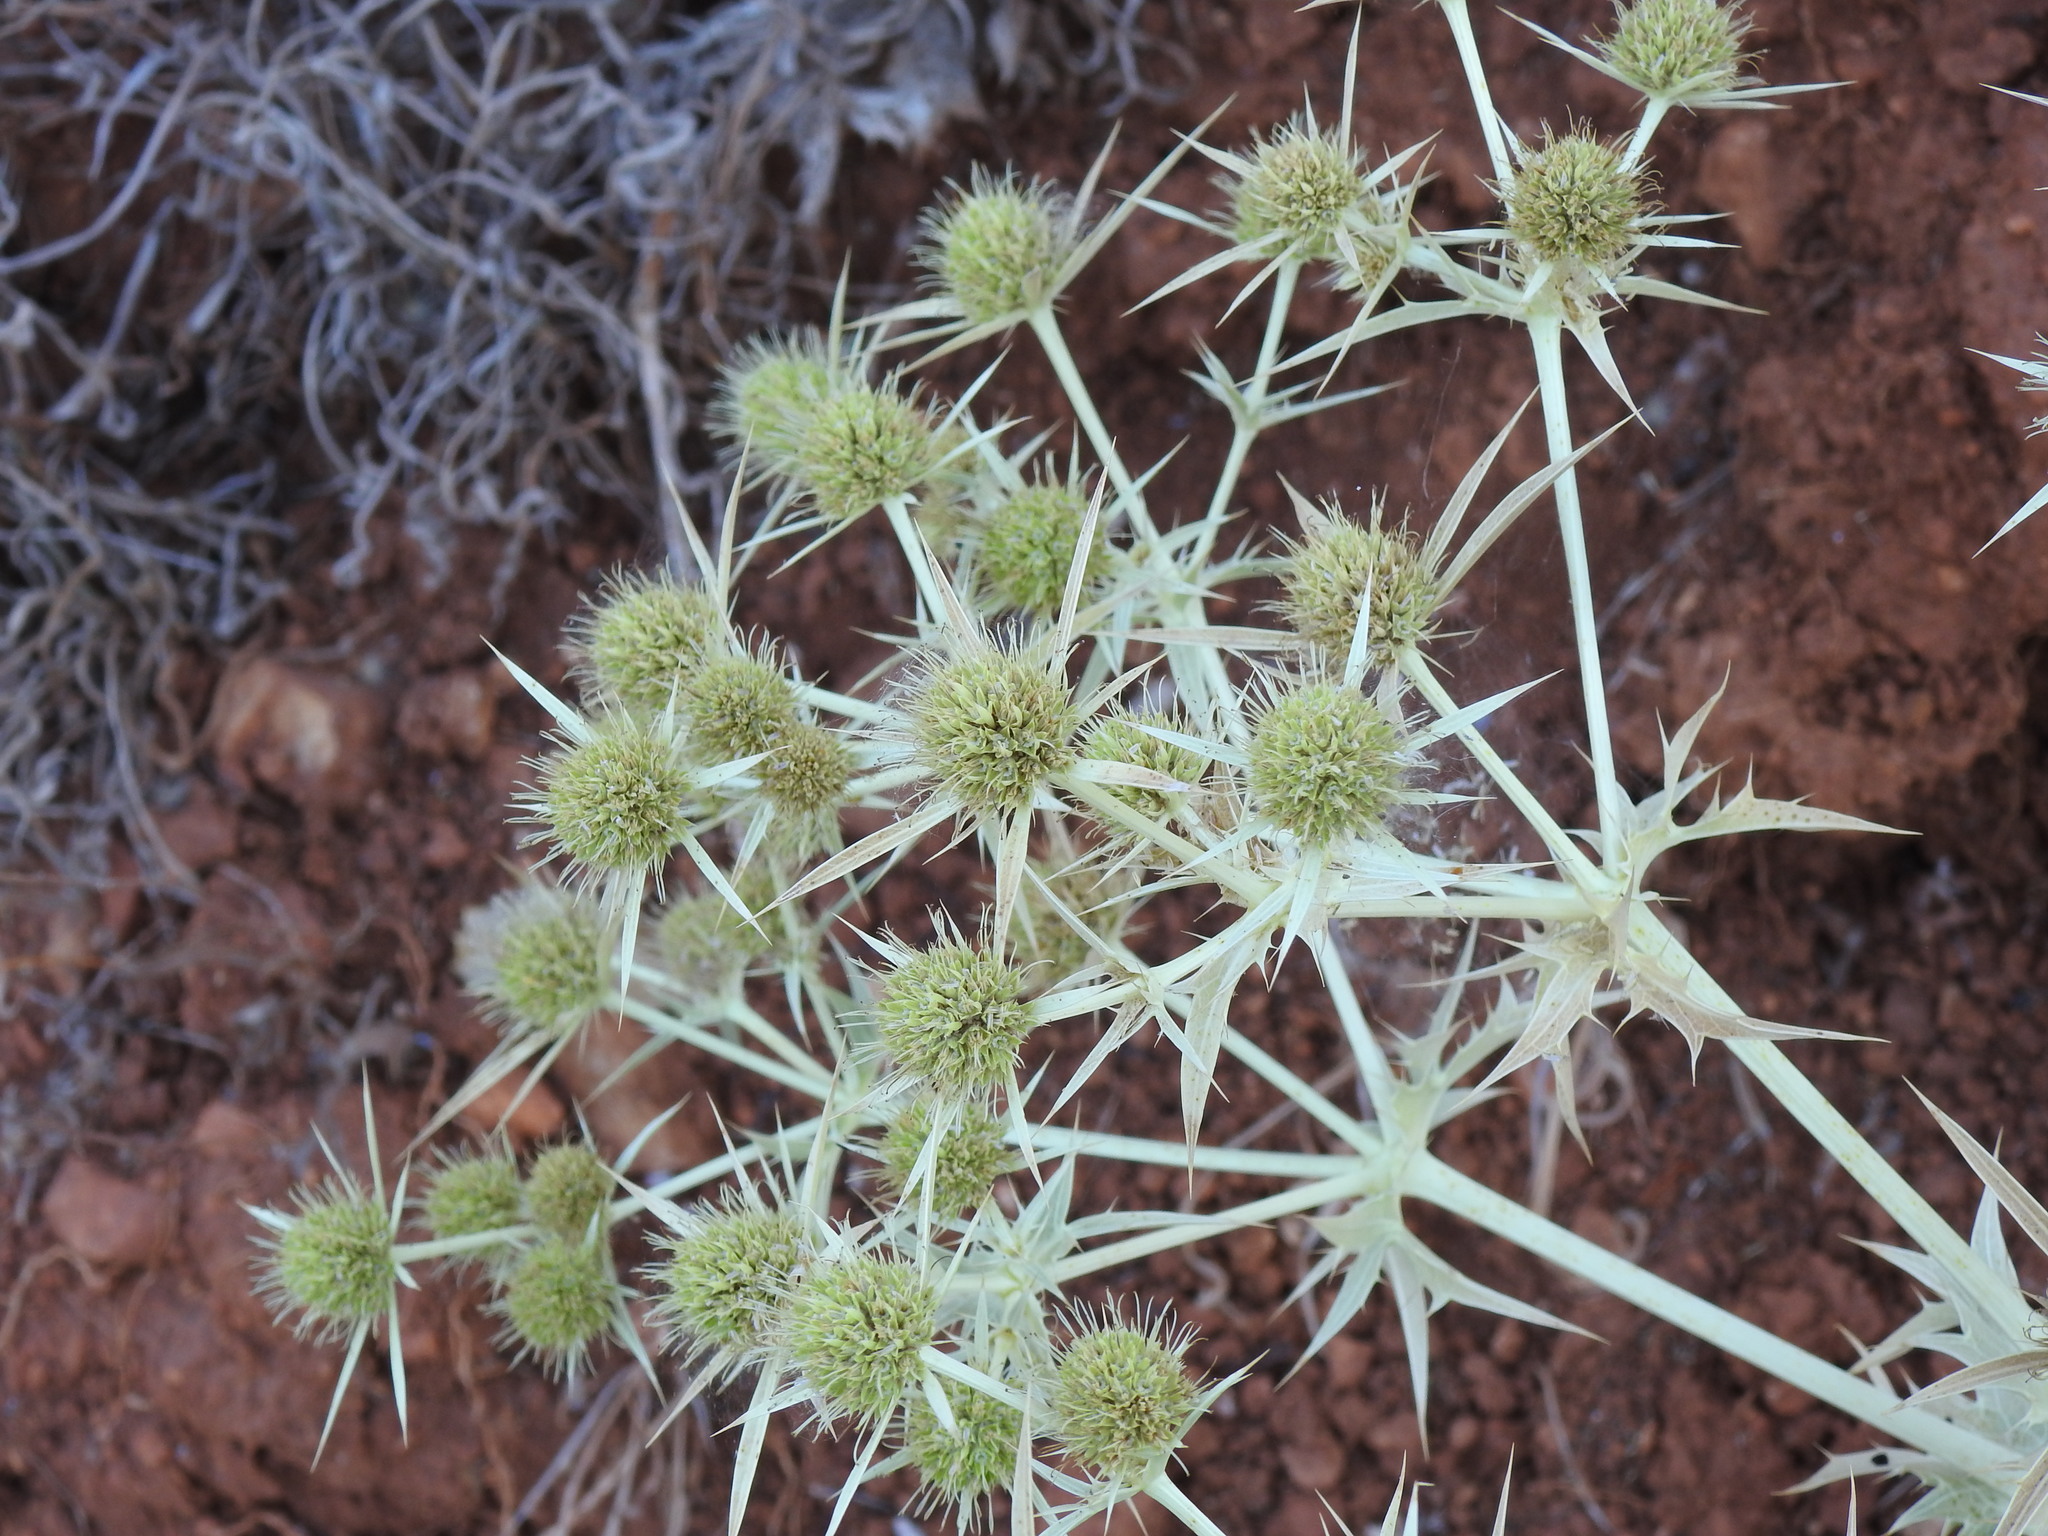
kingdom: Plantae
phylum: Tracheophyta
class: Magnoliopsida
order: Apiales
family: Apiaceae
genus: Eryngium
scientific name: Eryngium campestre
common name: Field eryngo
